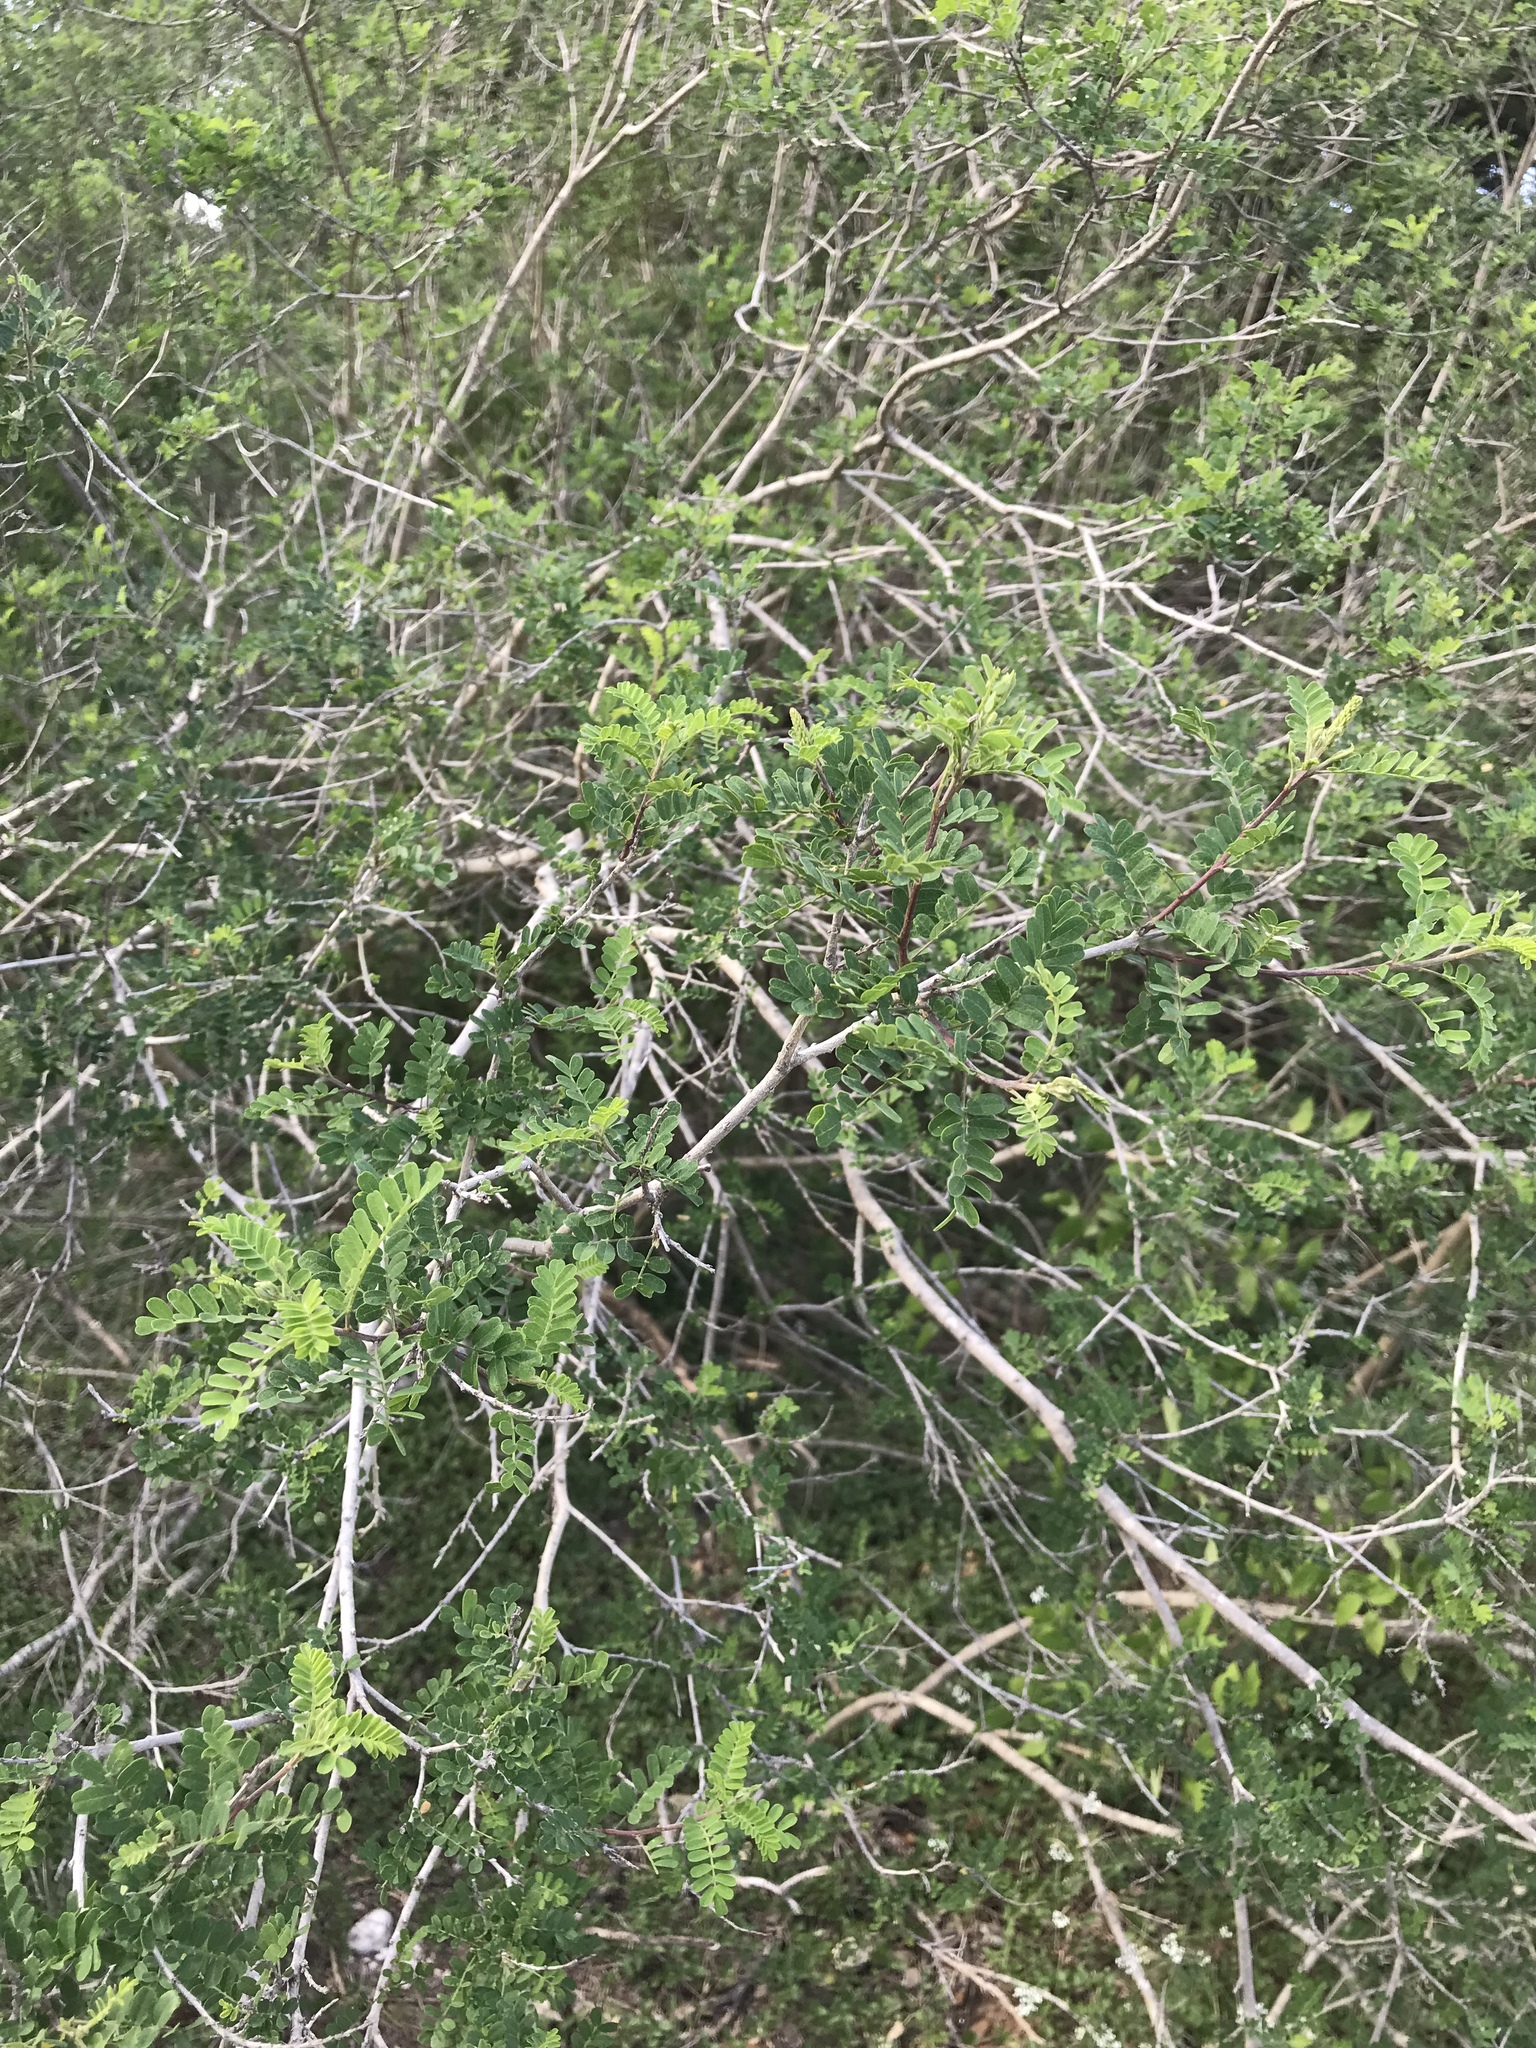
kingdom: Plantae
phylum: Tracheophyta
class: Magnoliopsida
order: Fabales
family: Fabaceae
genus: Eysenhardtia
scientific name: Eysenhardtia texana
